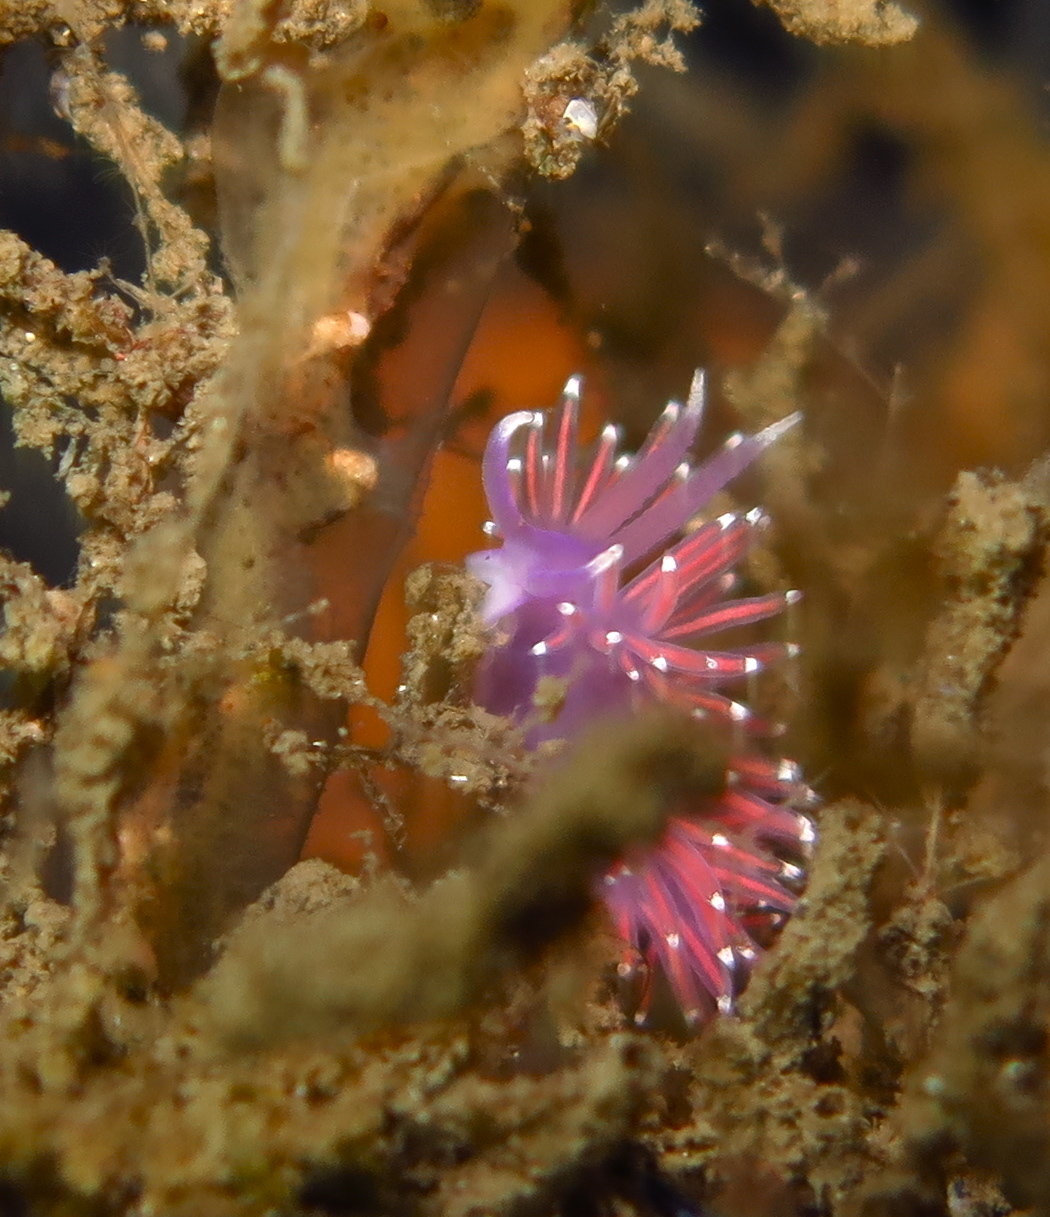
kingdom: Animalia
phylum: Mollusca
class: Gastropoda
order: Nudibranchia
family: Flabellinidae
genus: Edmundsella
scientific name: Edmundsella pedata
